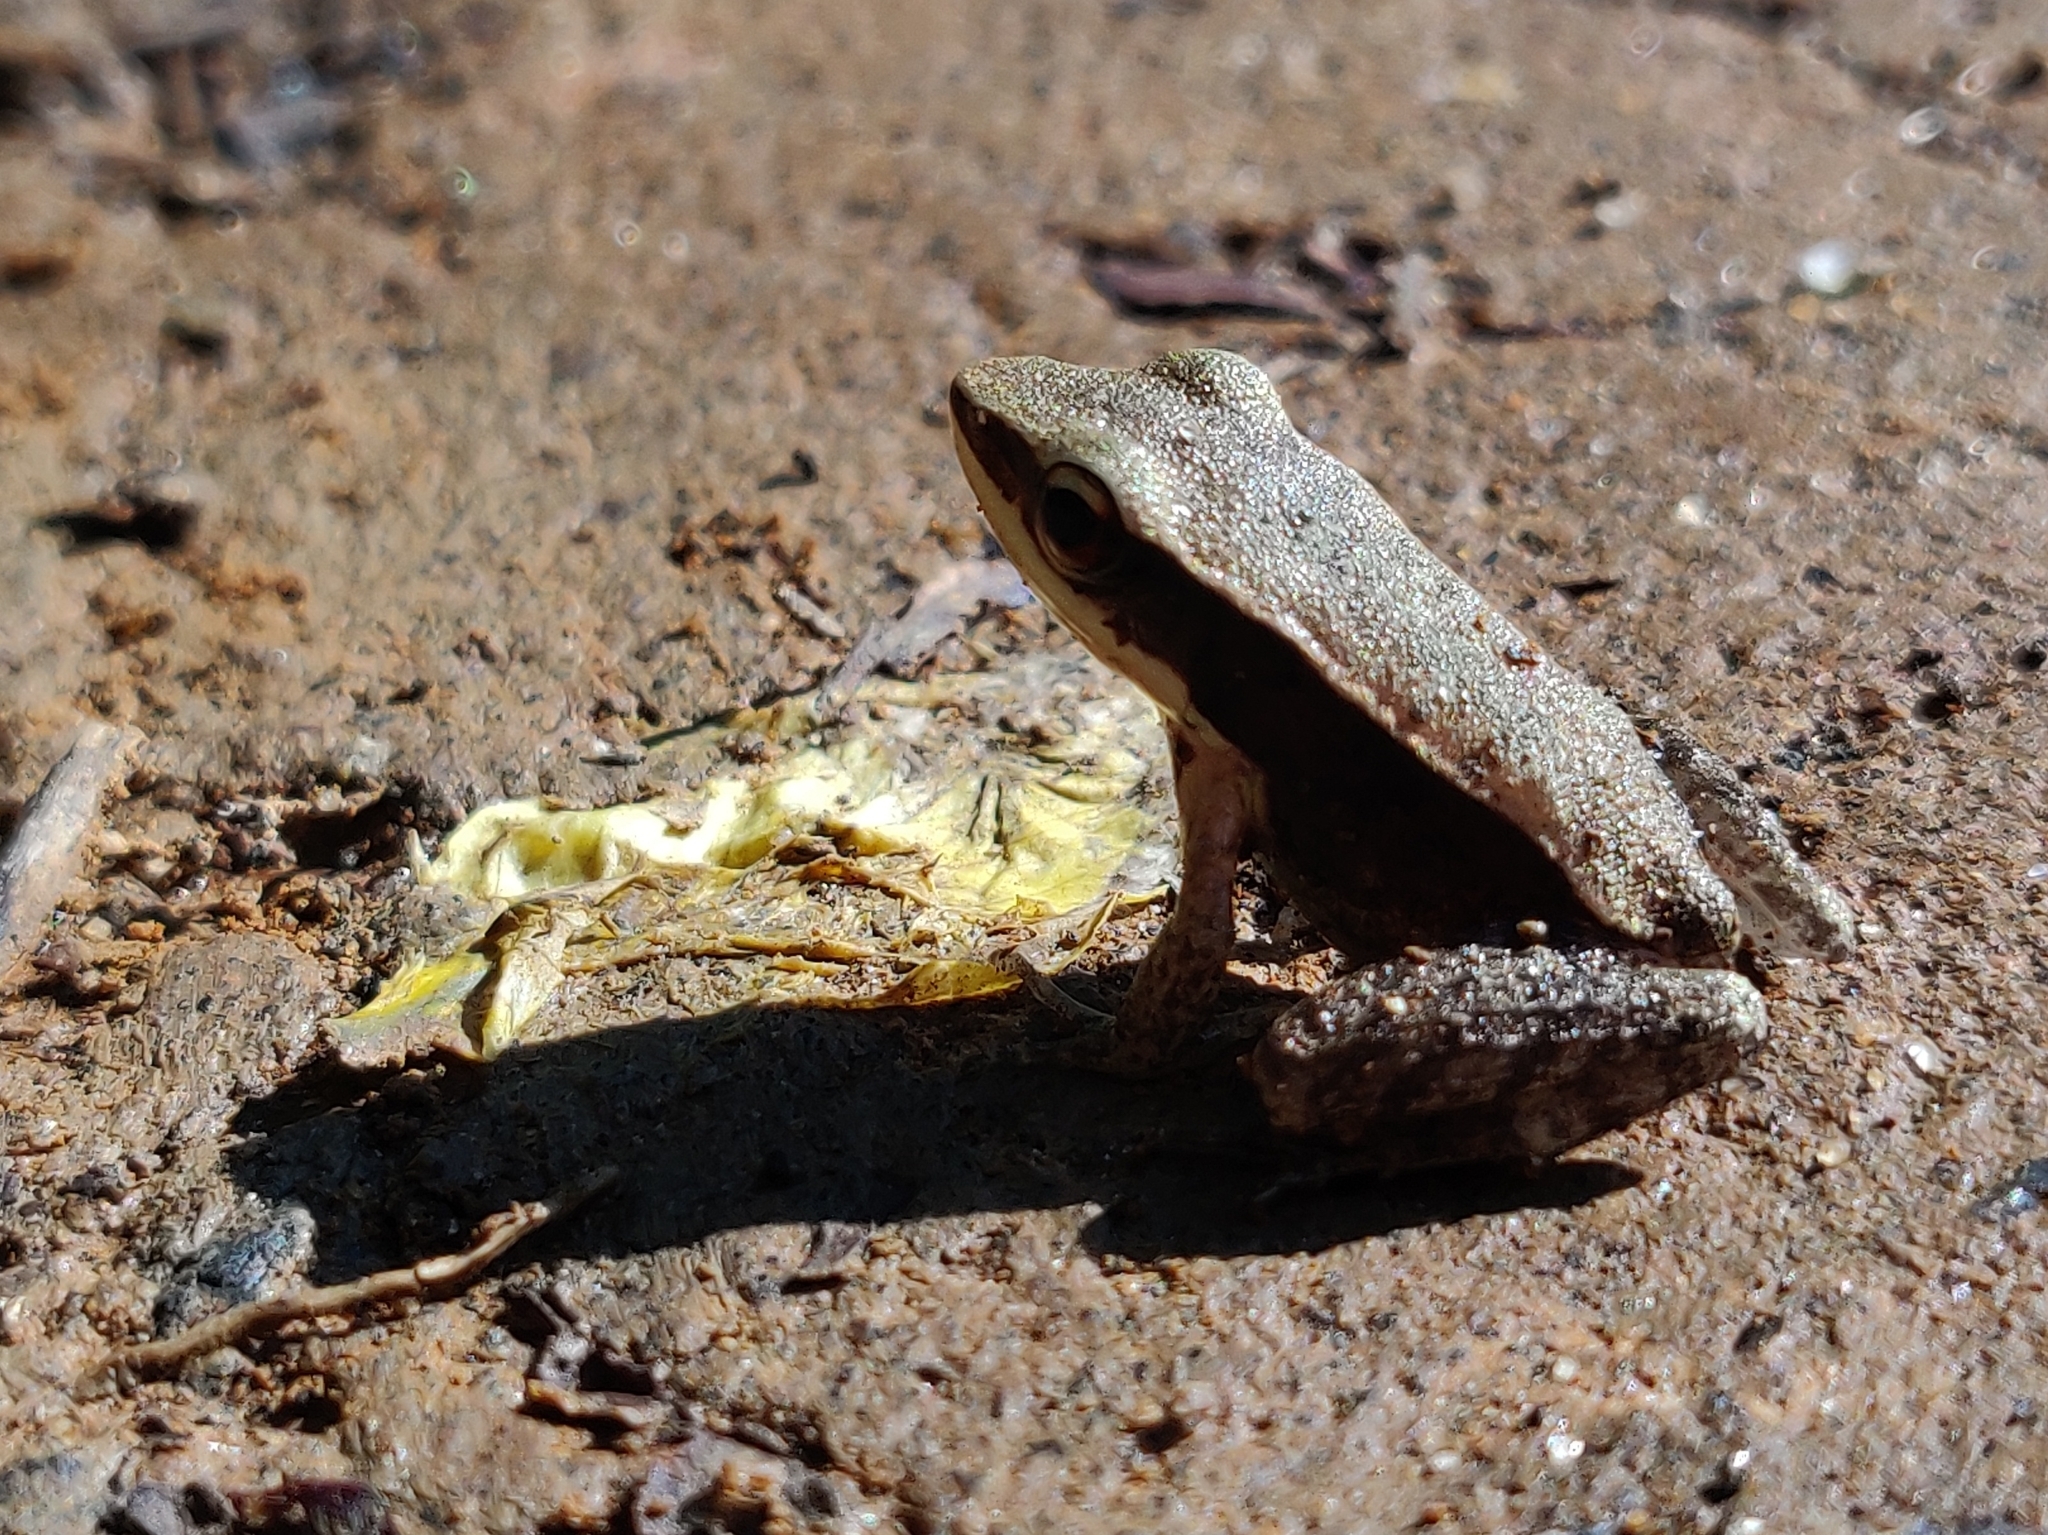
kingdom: Animalia
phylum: Chordata
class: Amphibia
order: Anura
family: Ranidae
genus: Indosylvirana
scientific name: Indosylvirana doni
